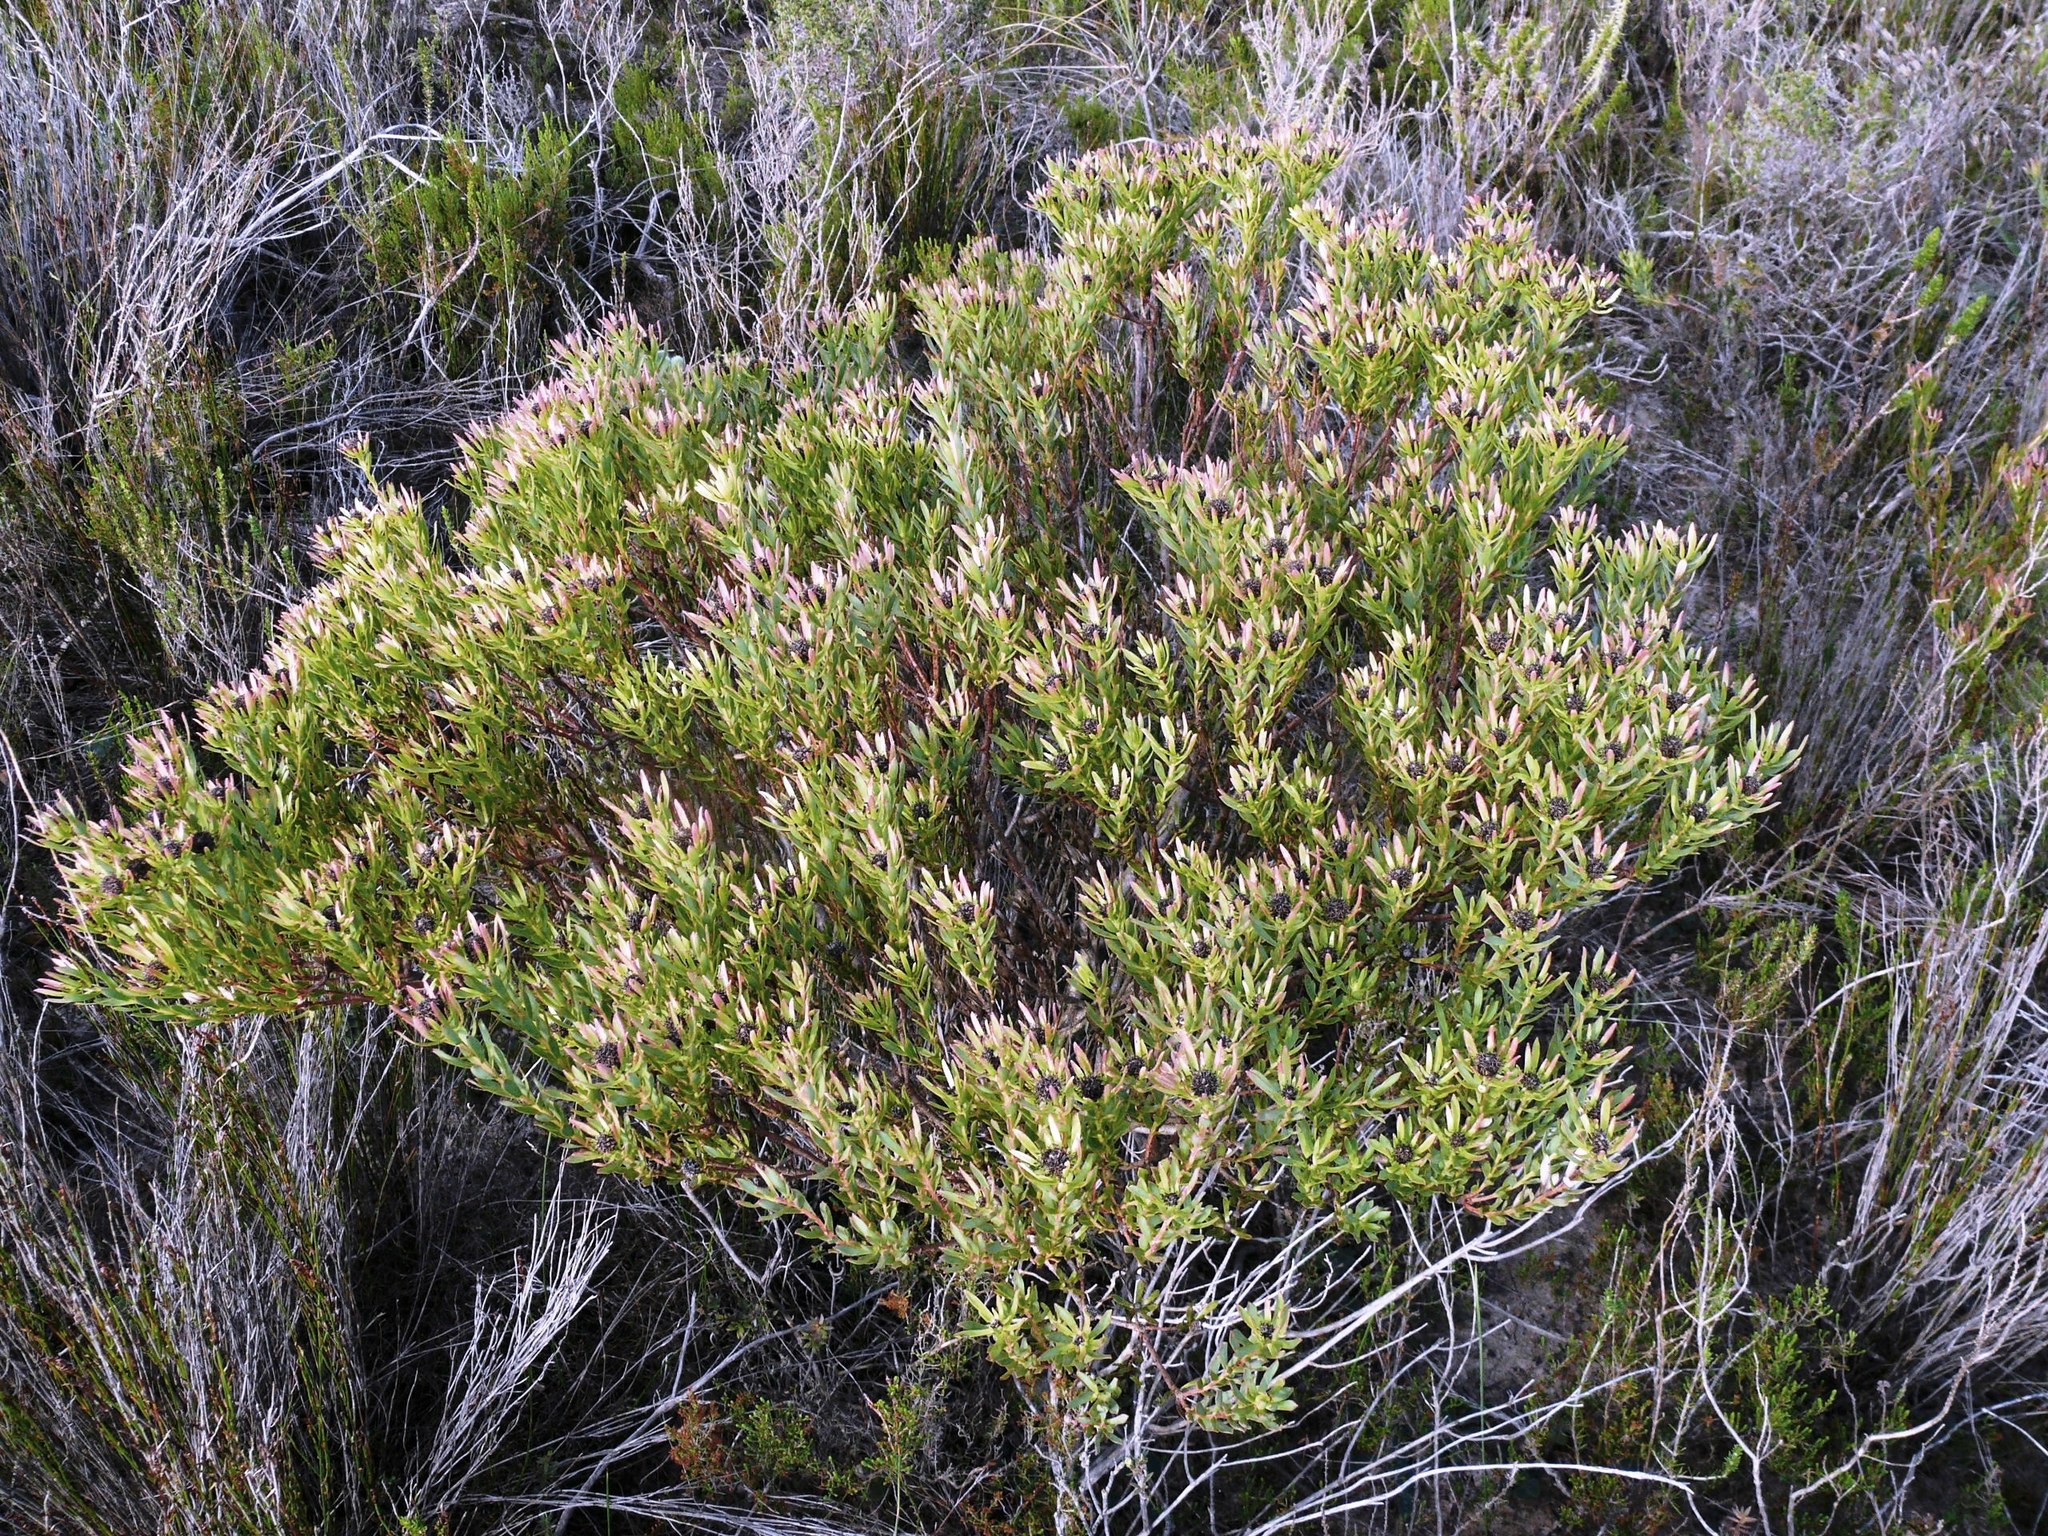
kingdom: Plantae
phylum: Tracheophyta
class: Magnoliopsida
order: Proteales
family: Proteaceae
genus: Leucadendron
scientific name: Leucadendron modestum
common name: Rough-leaf conebush
